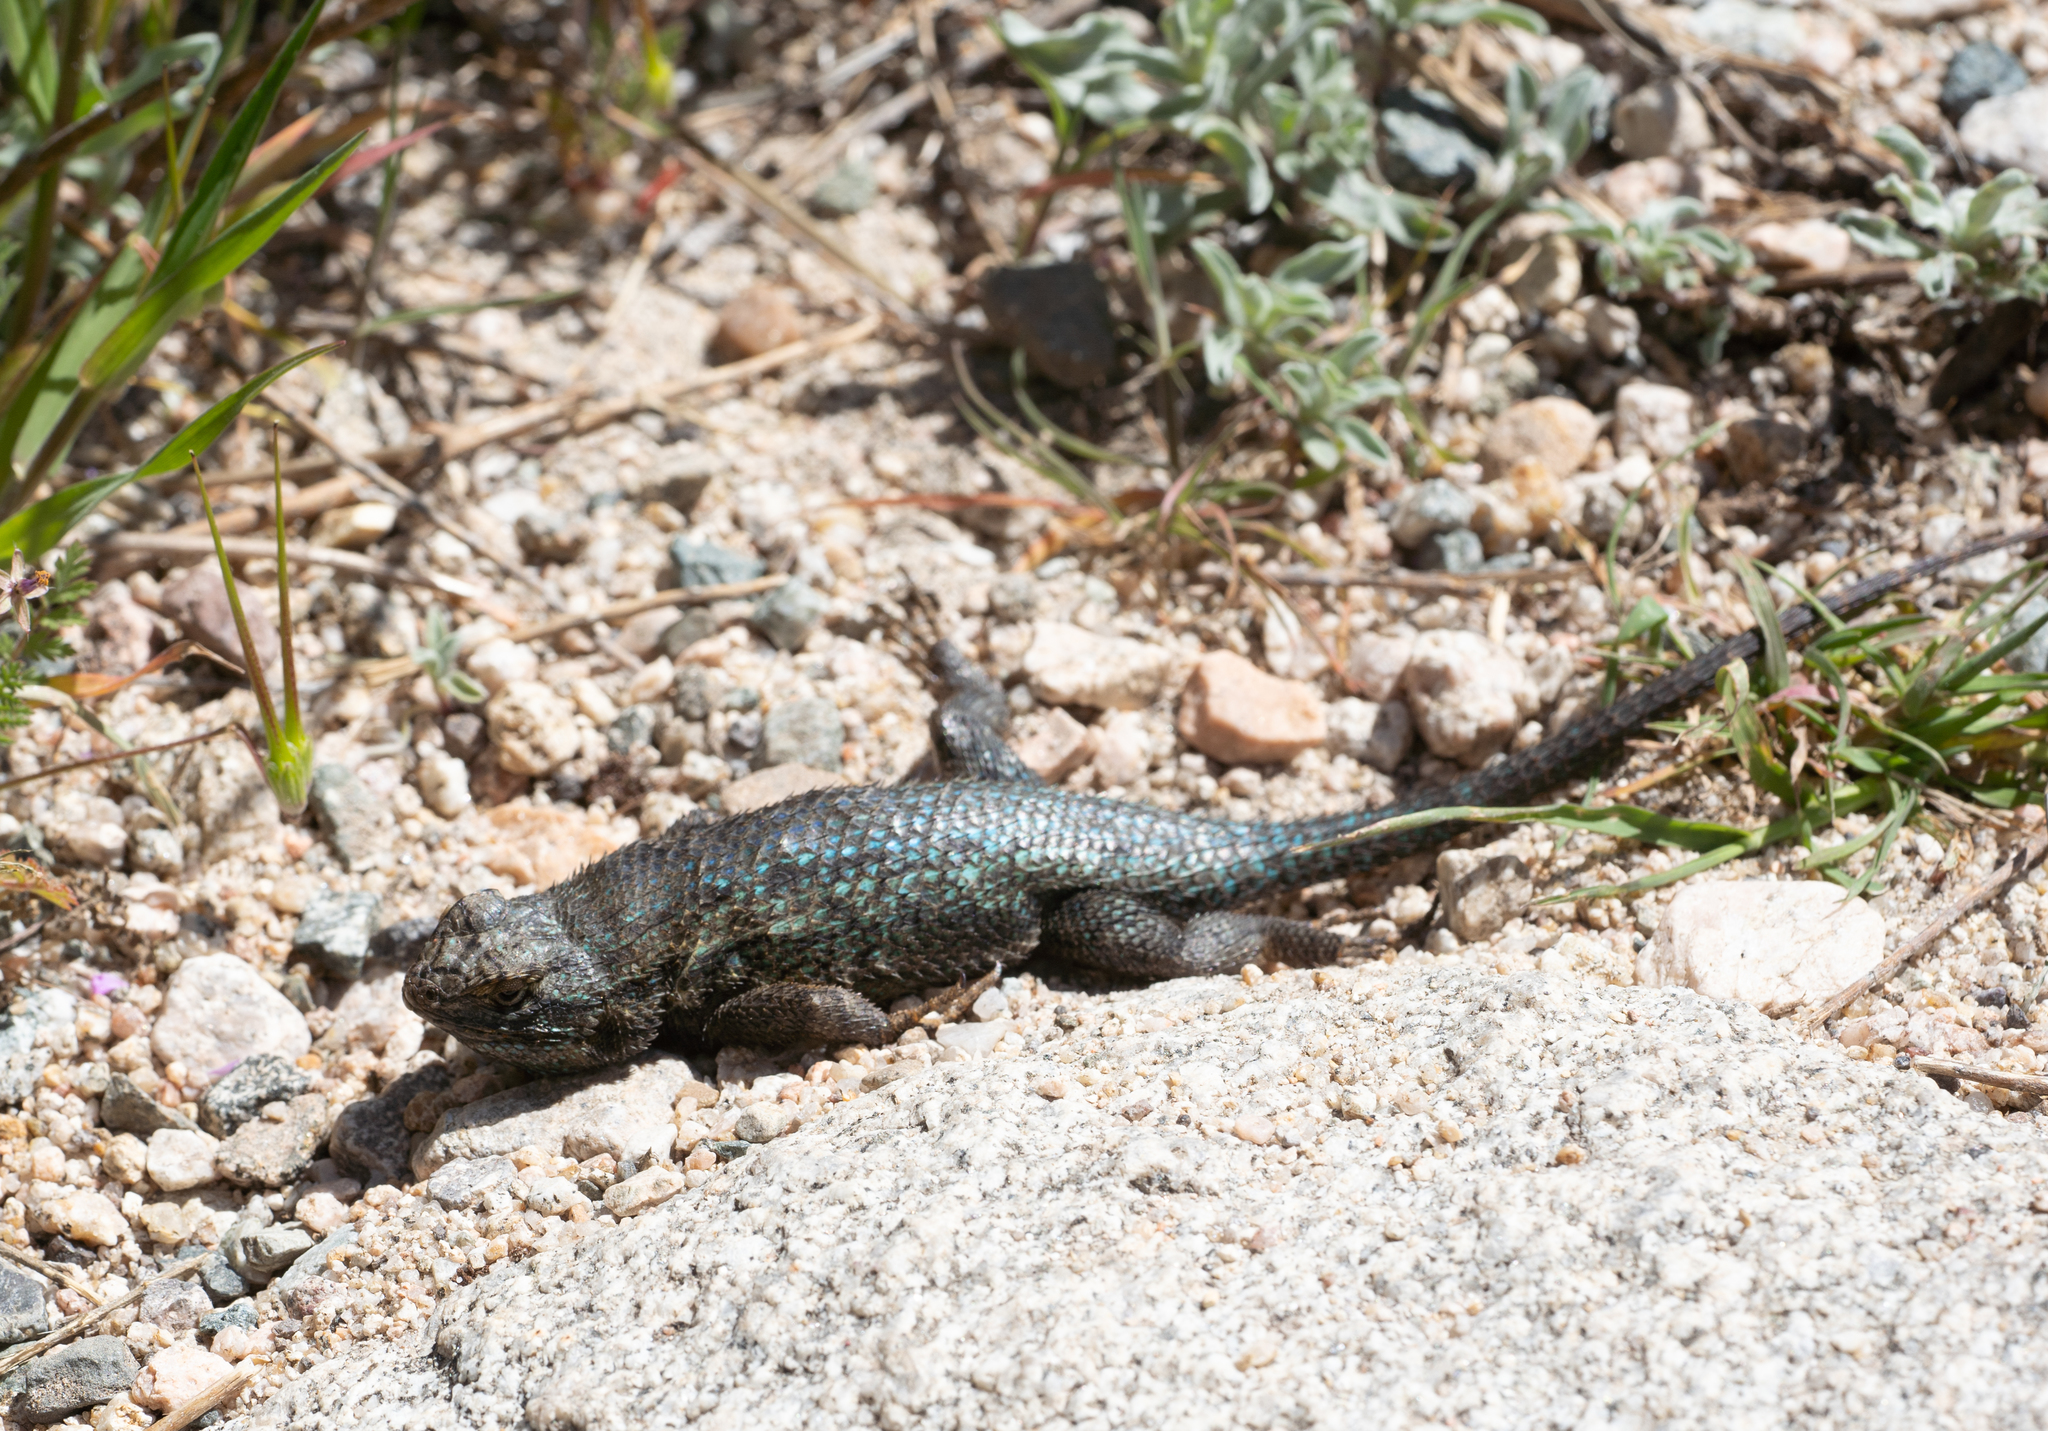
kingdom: Animalia
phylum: Chordata
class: Squamata
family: Phrynosomatidae
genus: Sceloporus
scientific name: Sceloporus occidentalis
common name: Western fence lizard
